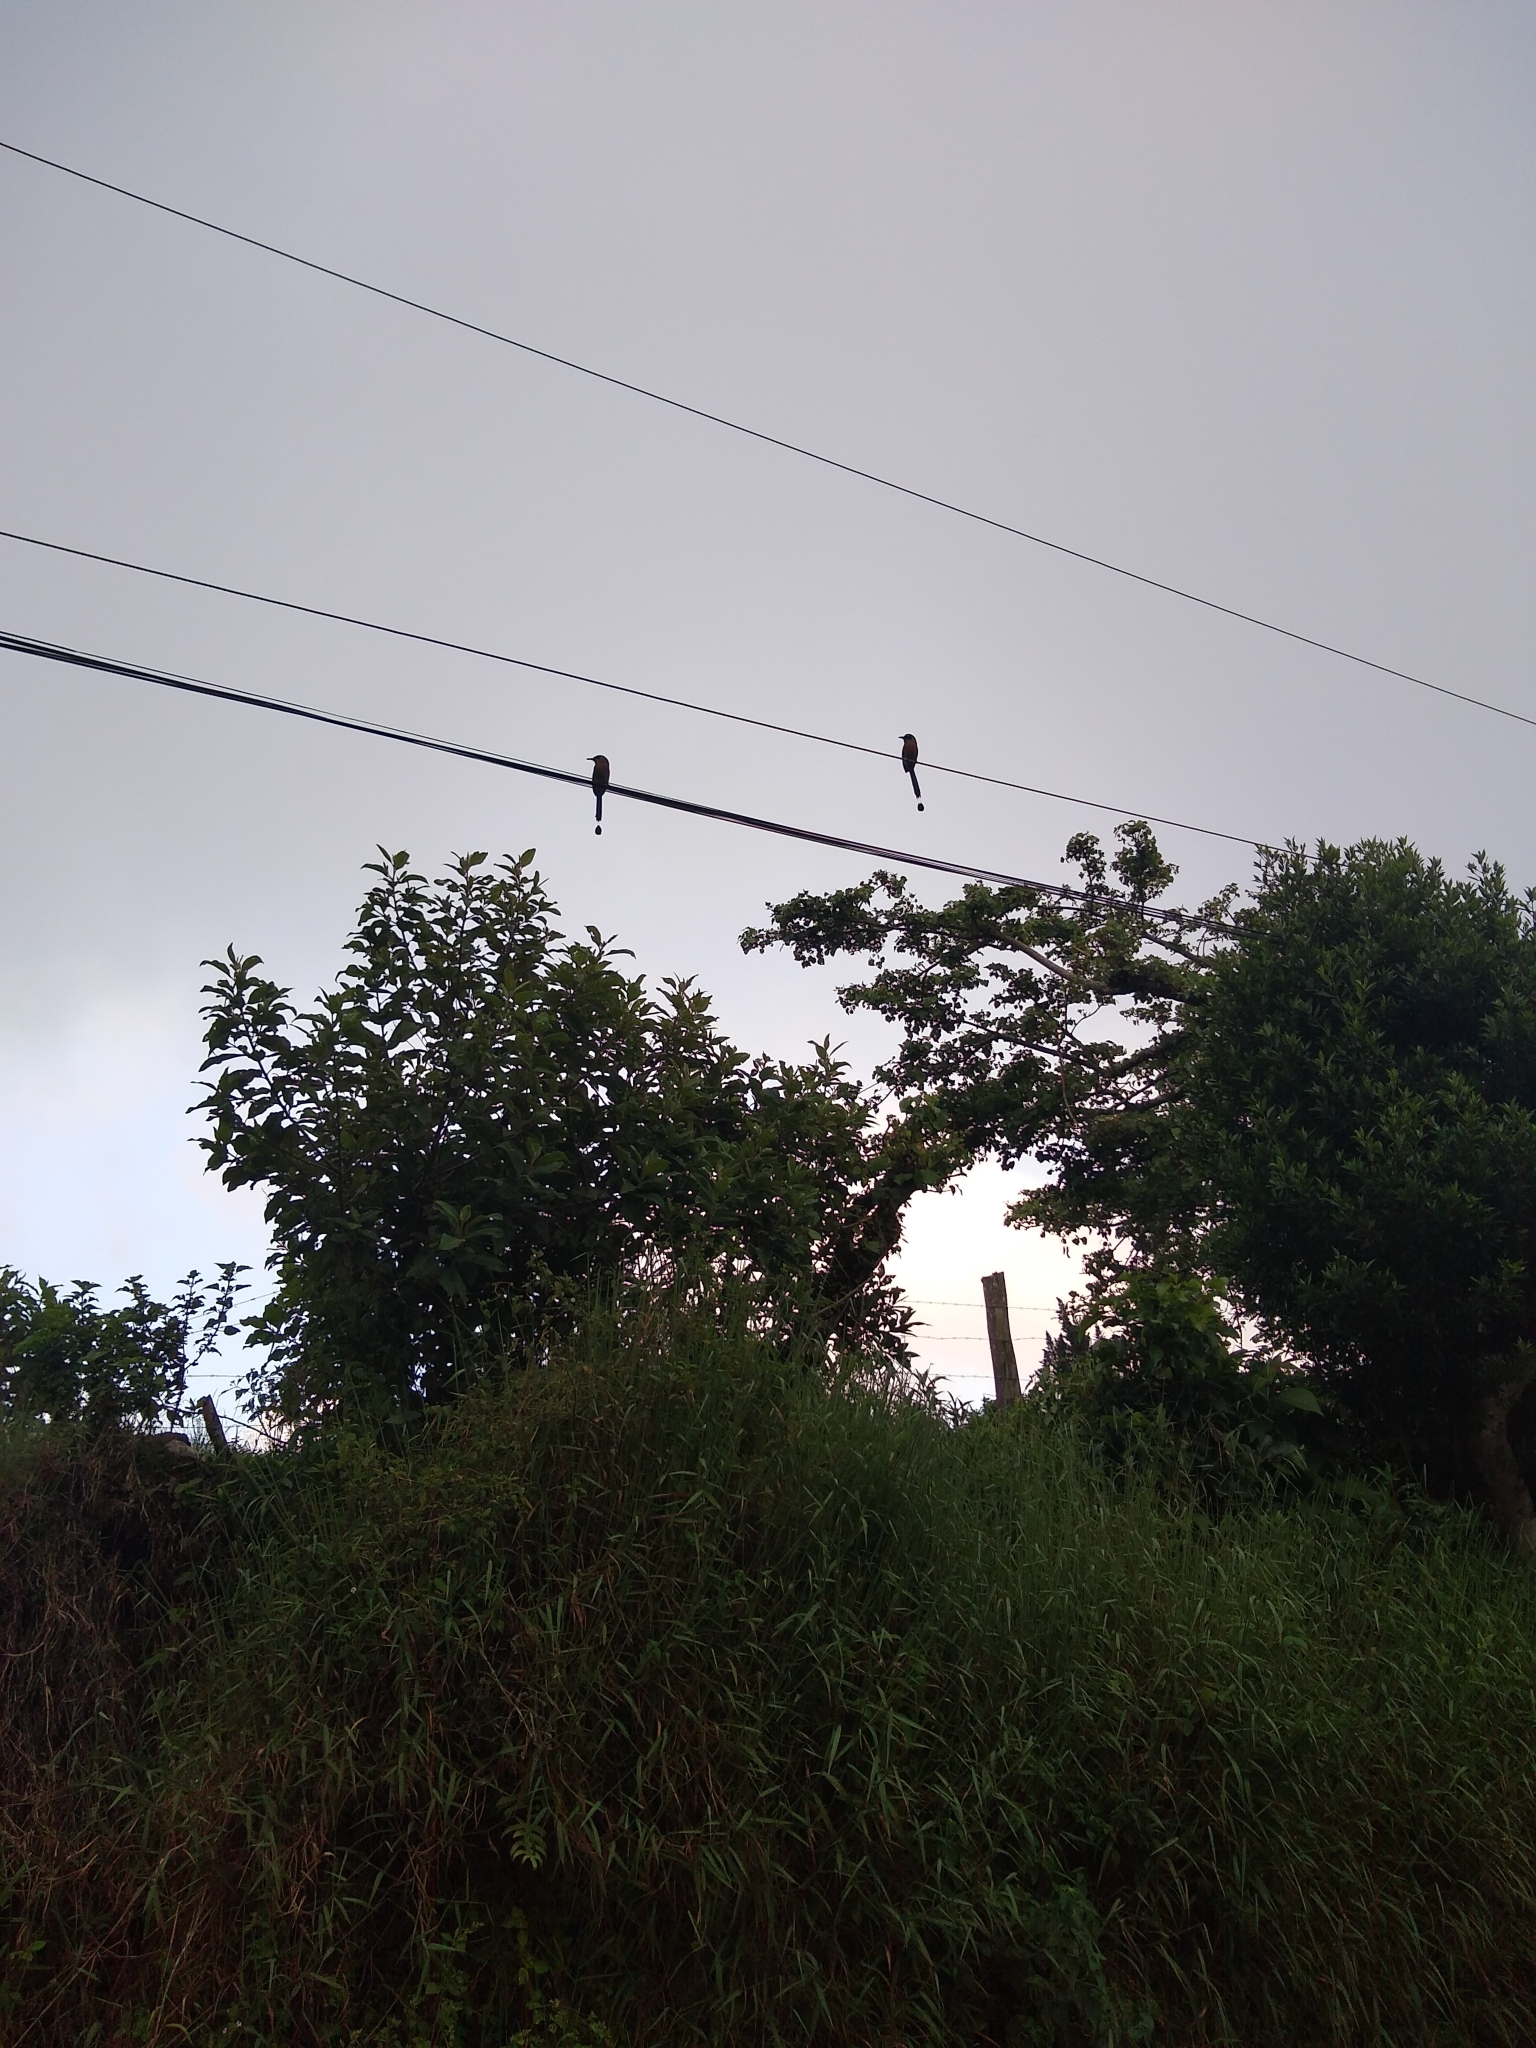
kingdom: Animalia
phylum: Chordata
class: Aves
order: Coraciiformes
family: Momotidae
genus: Momotus
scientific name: Momotus lessonii
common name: Lesson's motmot
